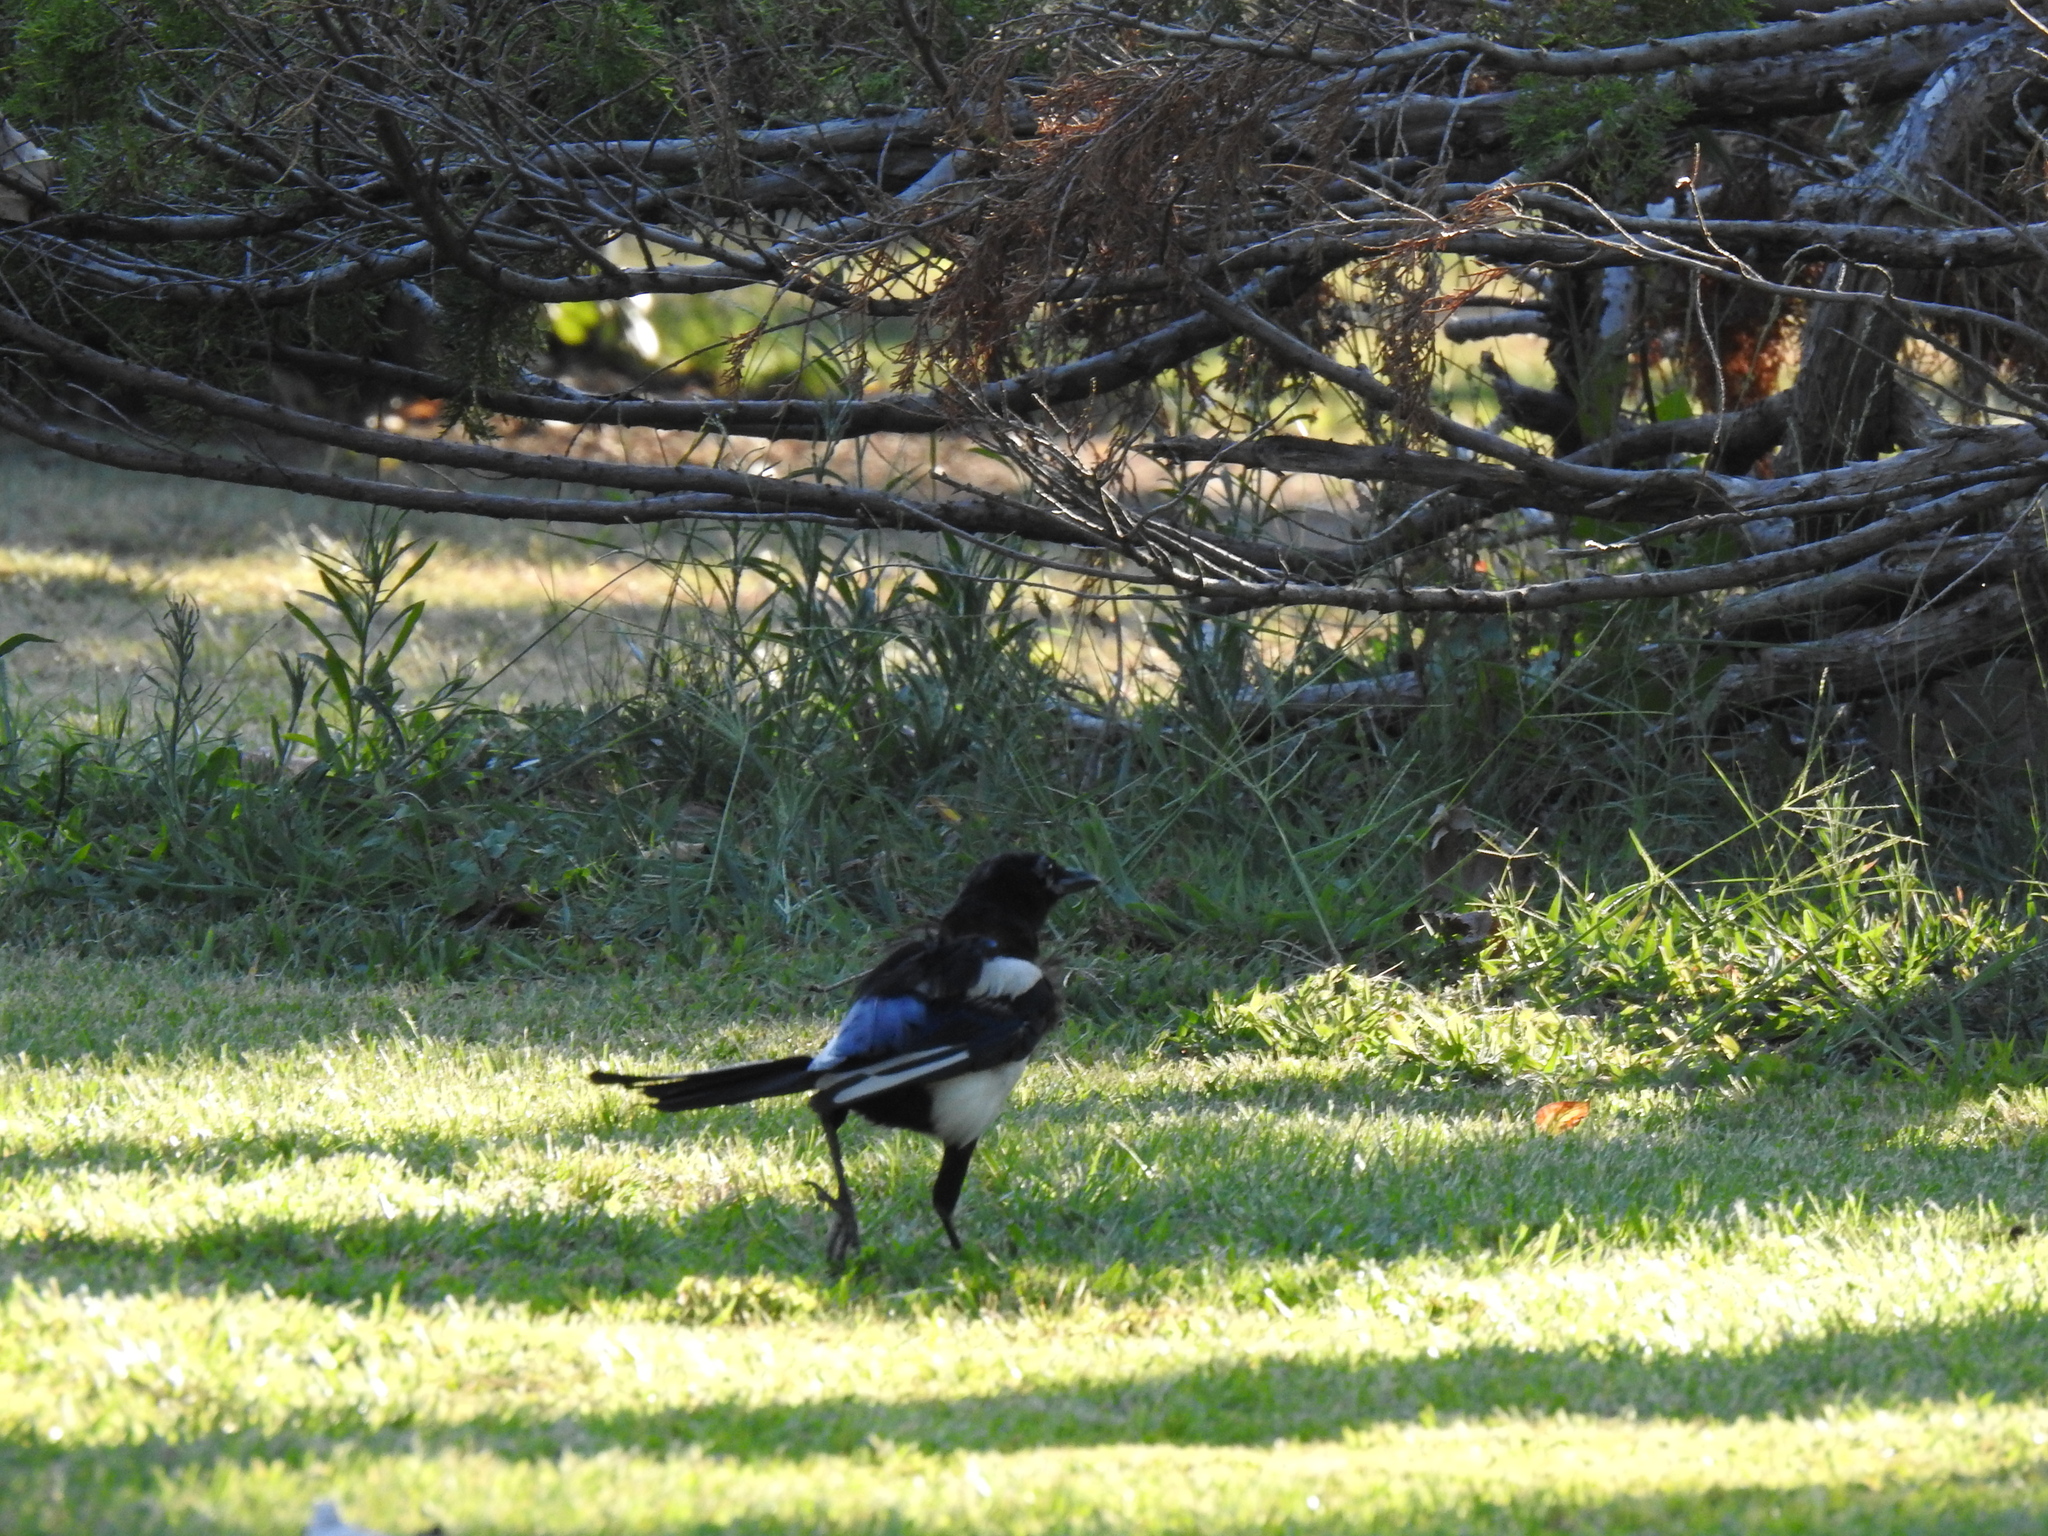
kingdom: Animalia
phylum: Chordata
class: Aves
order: Passeriformes
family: Corvidae
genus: Pica
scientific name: Pica pica
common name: Eurasian magpie
